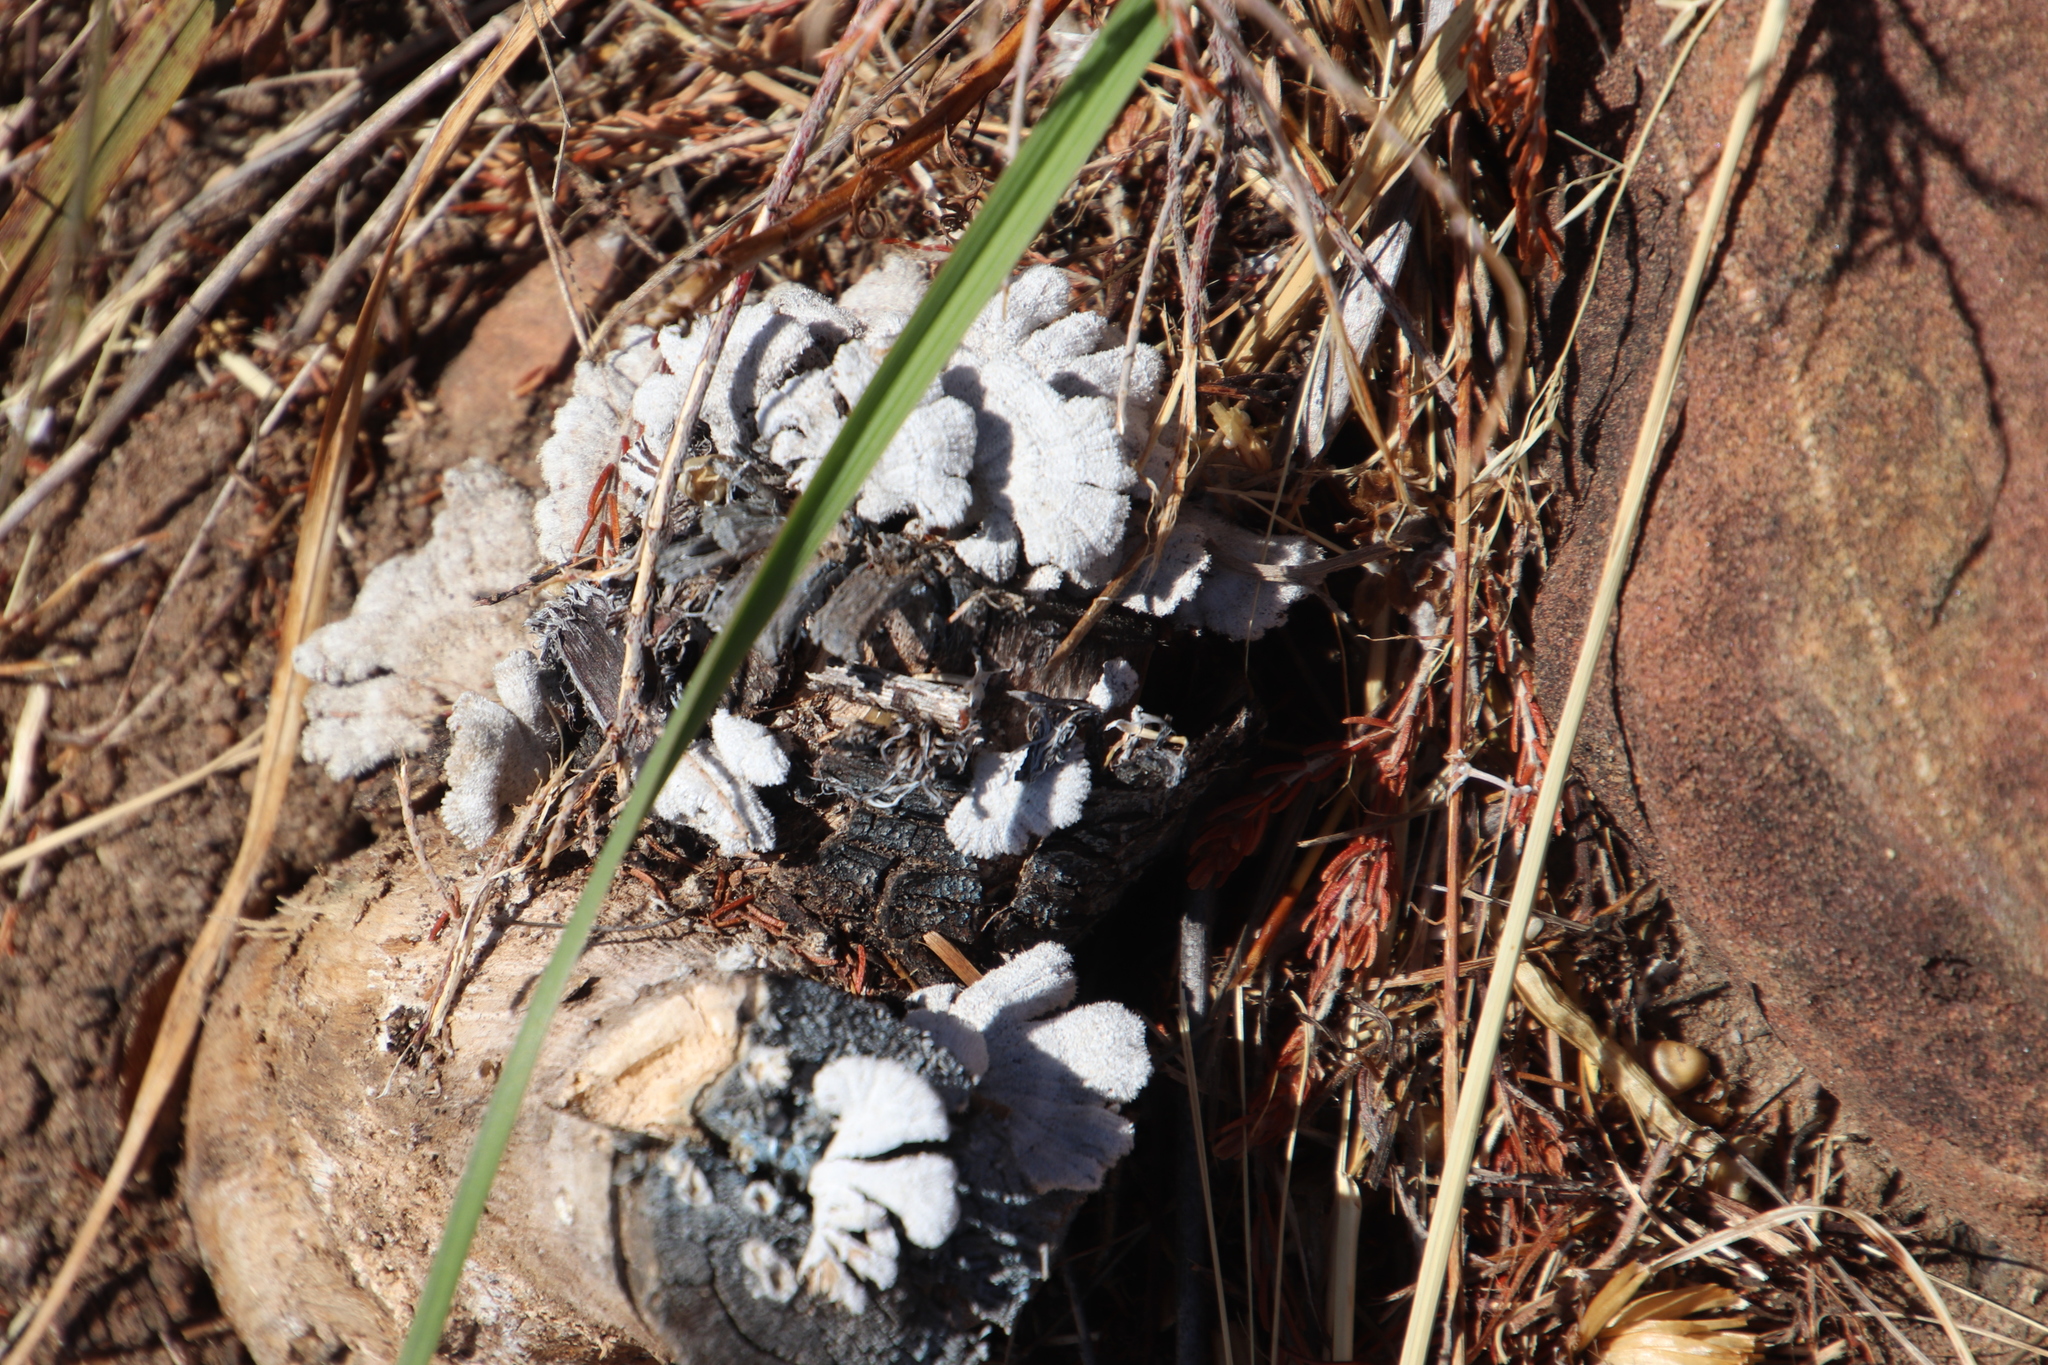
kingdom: Fungi
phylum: Basidiomycota
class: Agaricomycetes
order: Agaricales
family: Schizophyllaceae
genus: Schizophyllum
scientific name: Schizophyllum commune
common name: Common porecrust
